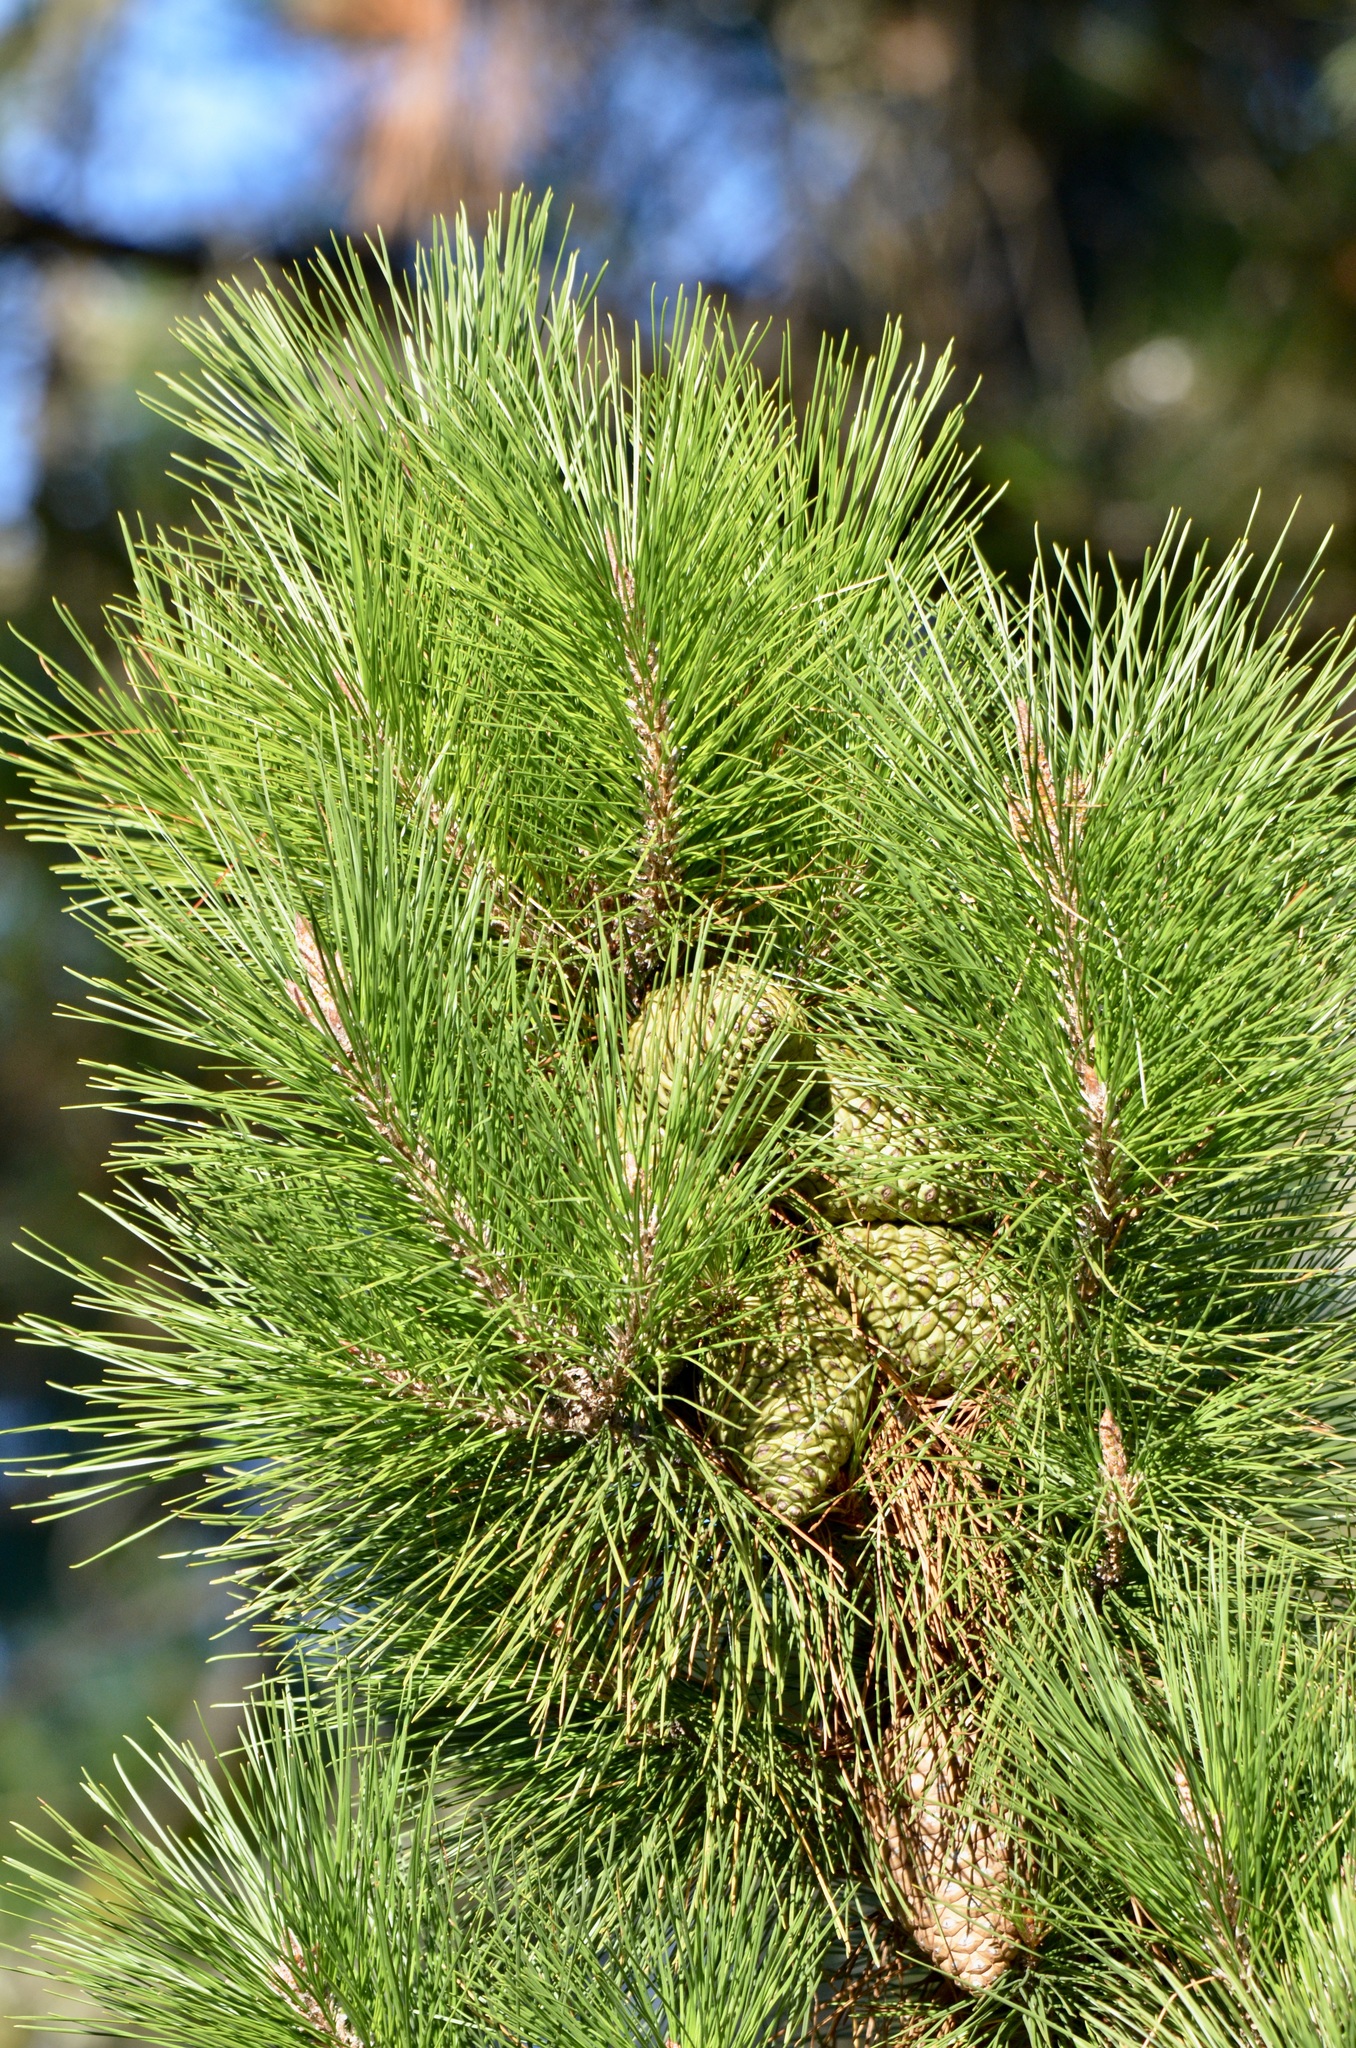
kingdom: Plantae
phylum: Tracheophyta
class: Pinopsida
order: Pinales
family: Pinaceae
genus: Pinus
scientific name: Pinus radiata
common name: Monterey pine
